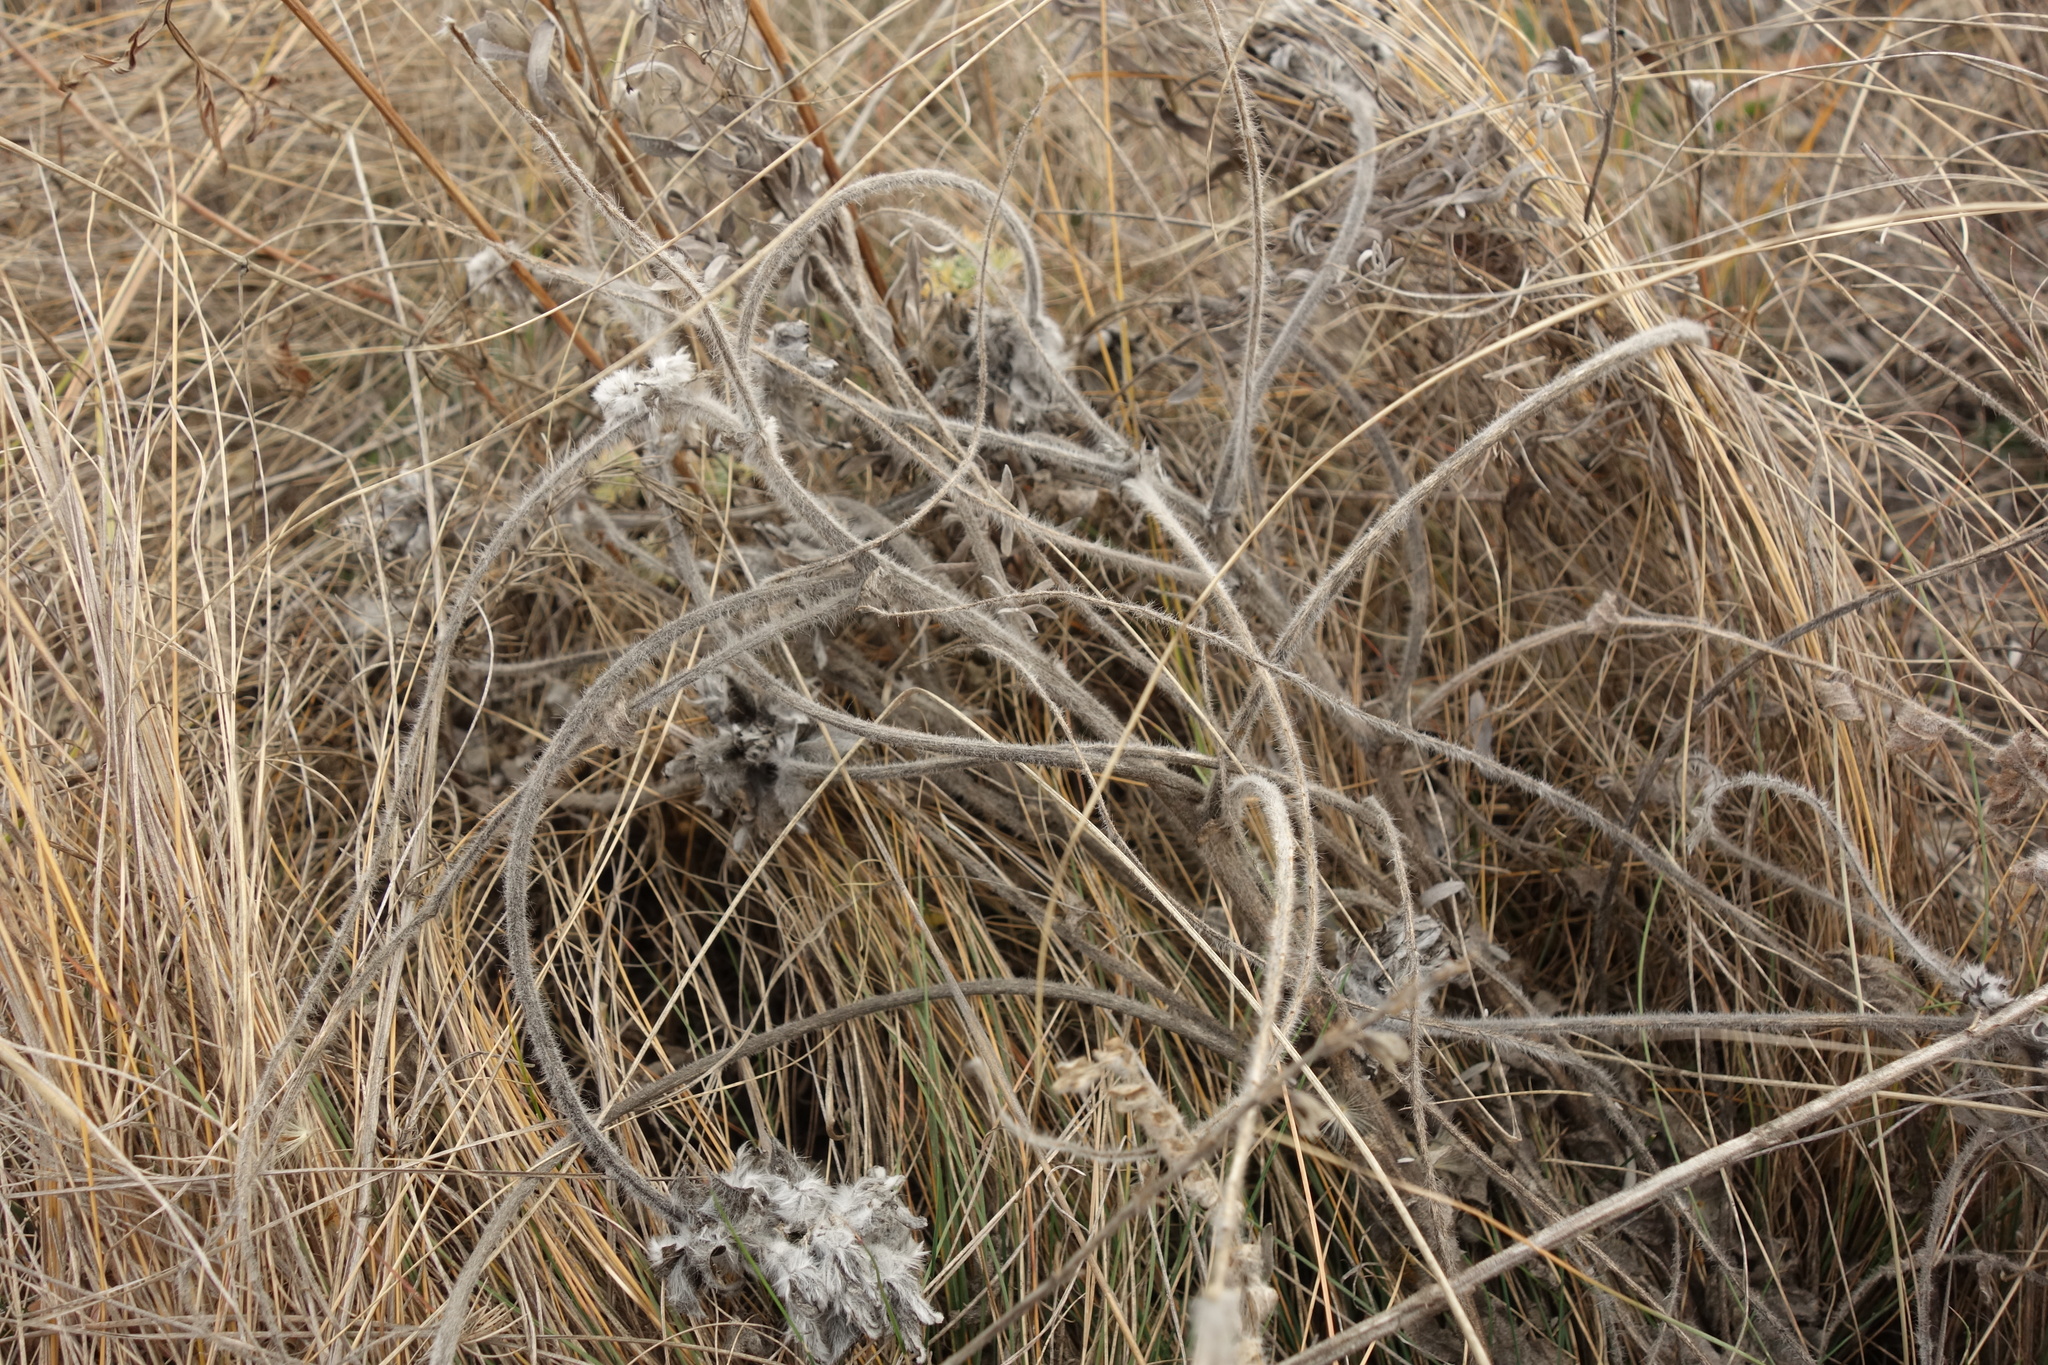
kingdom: Plantae
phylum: Tracheophyta
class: Magnoliopsida
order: Fabales
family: Fabaceae
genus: Astragalus
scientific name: Astragalus dasyanthus
